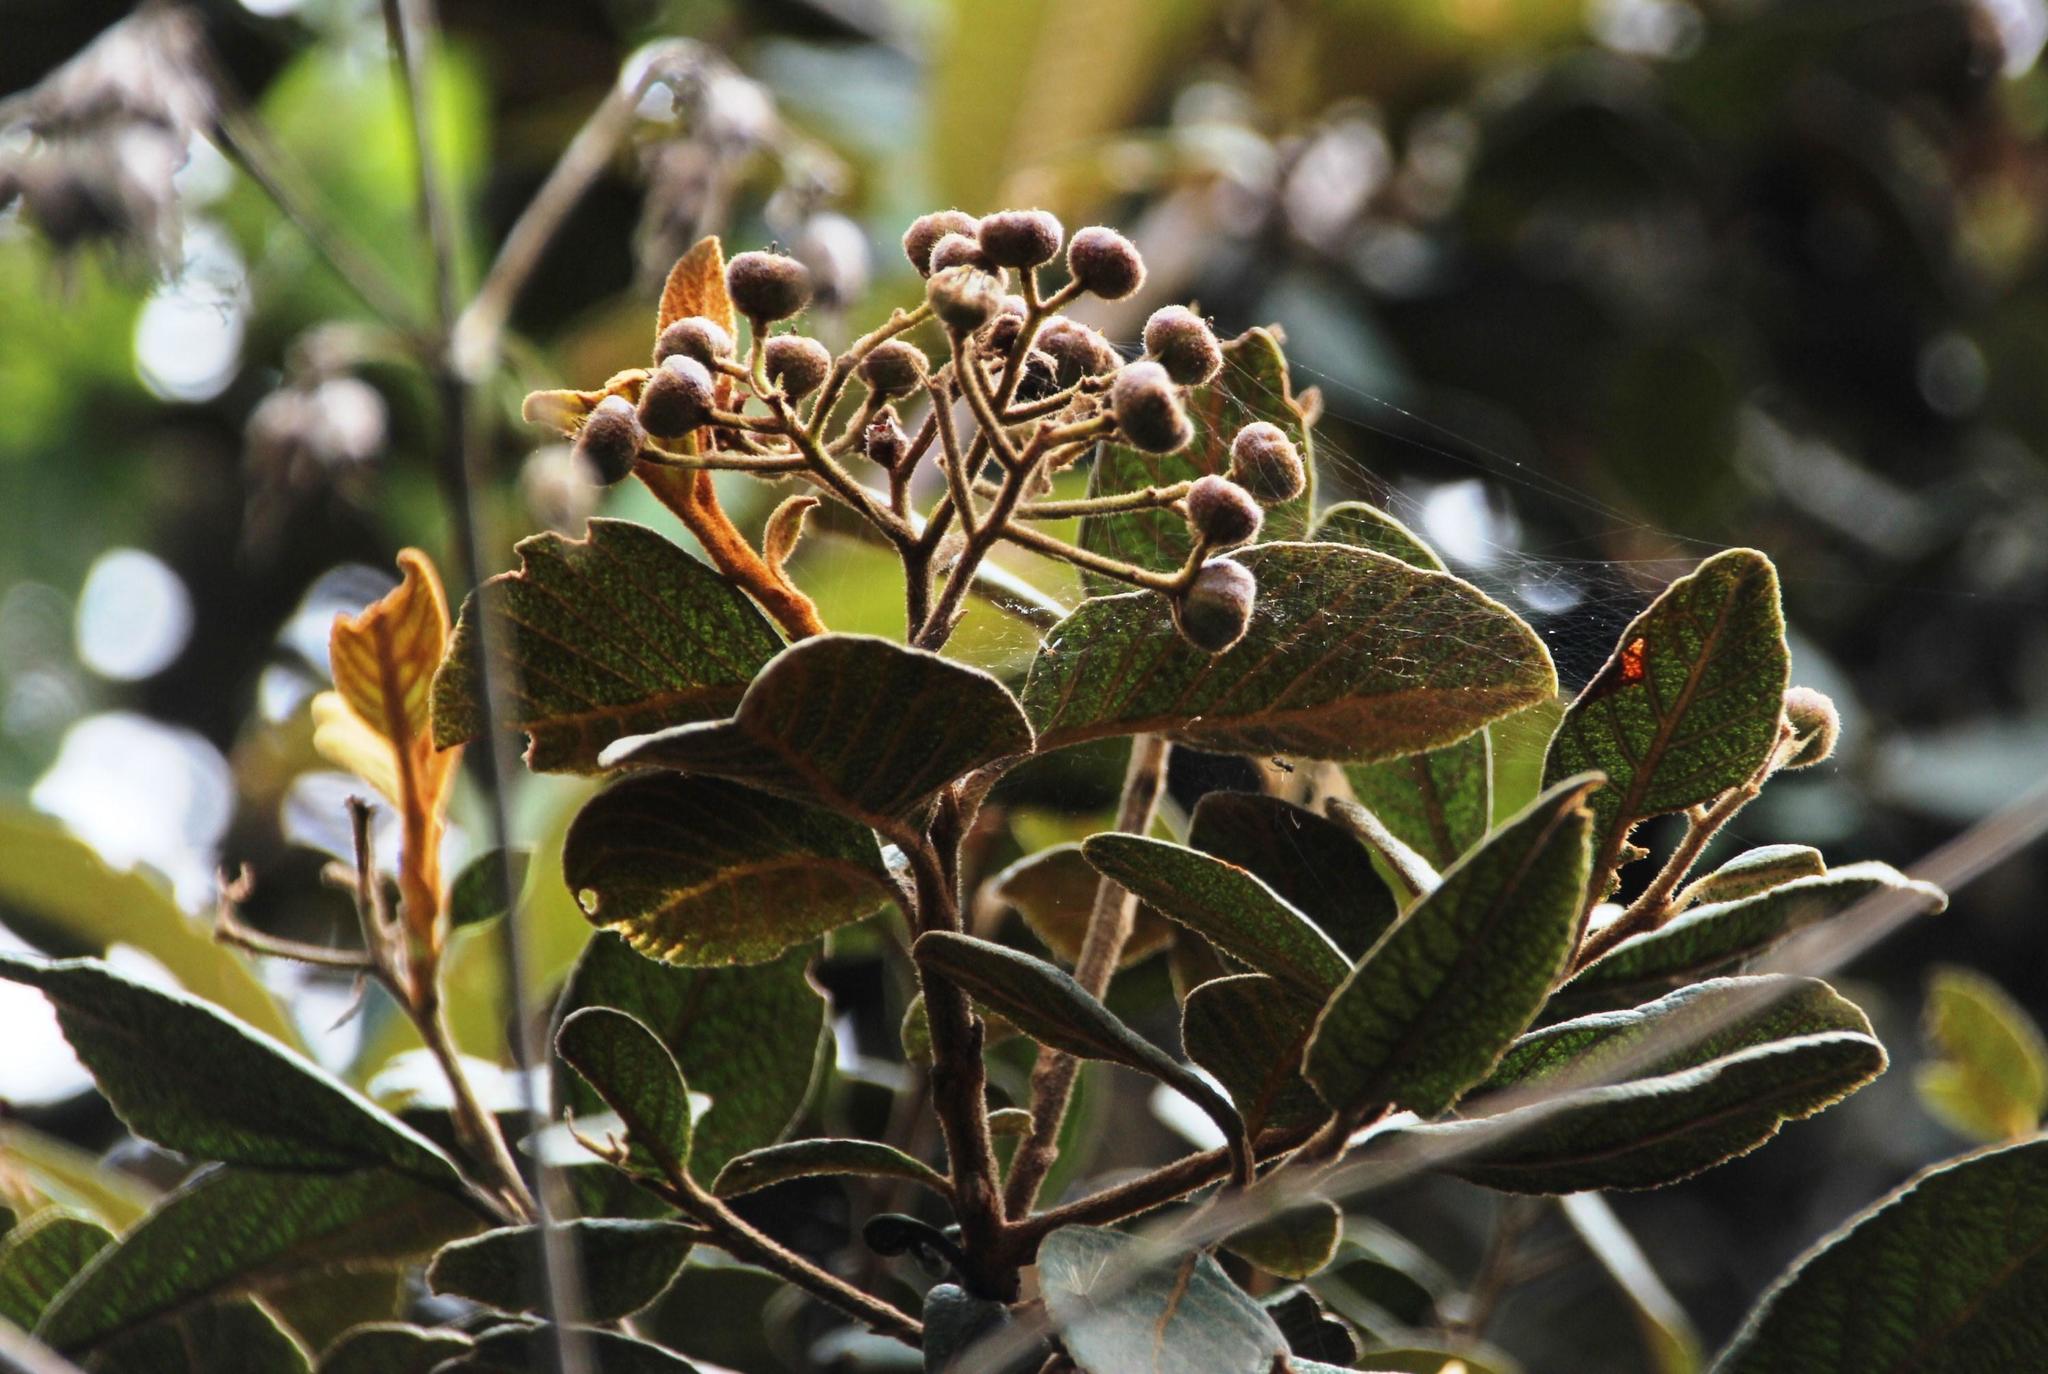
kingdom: Plantae
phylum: Tracheophyta
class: Magnoliopsida
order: Rosales
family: Rosaceae
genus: Hesperomeles
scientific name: Hesperomeles ferruginea
